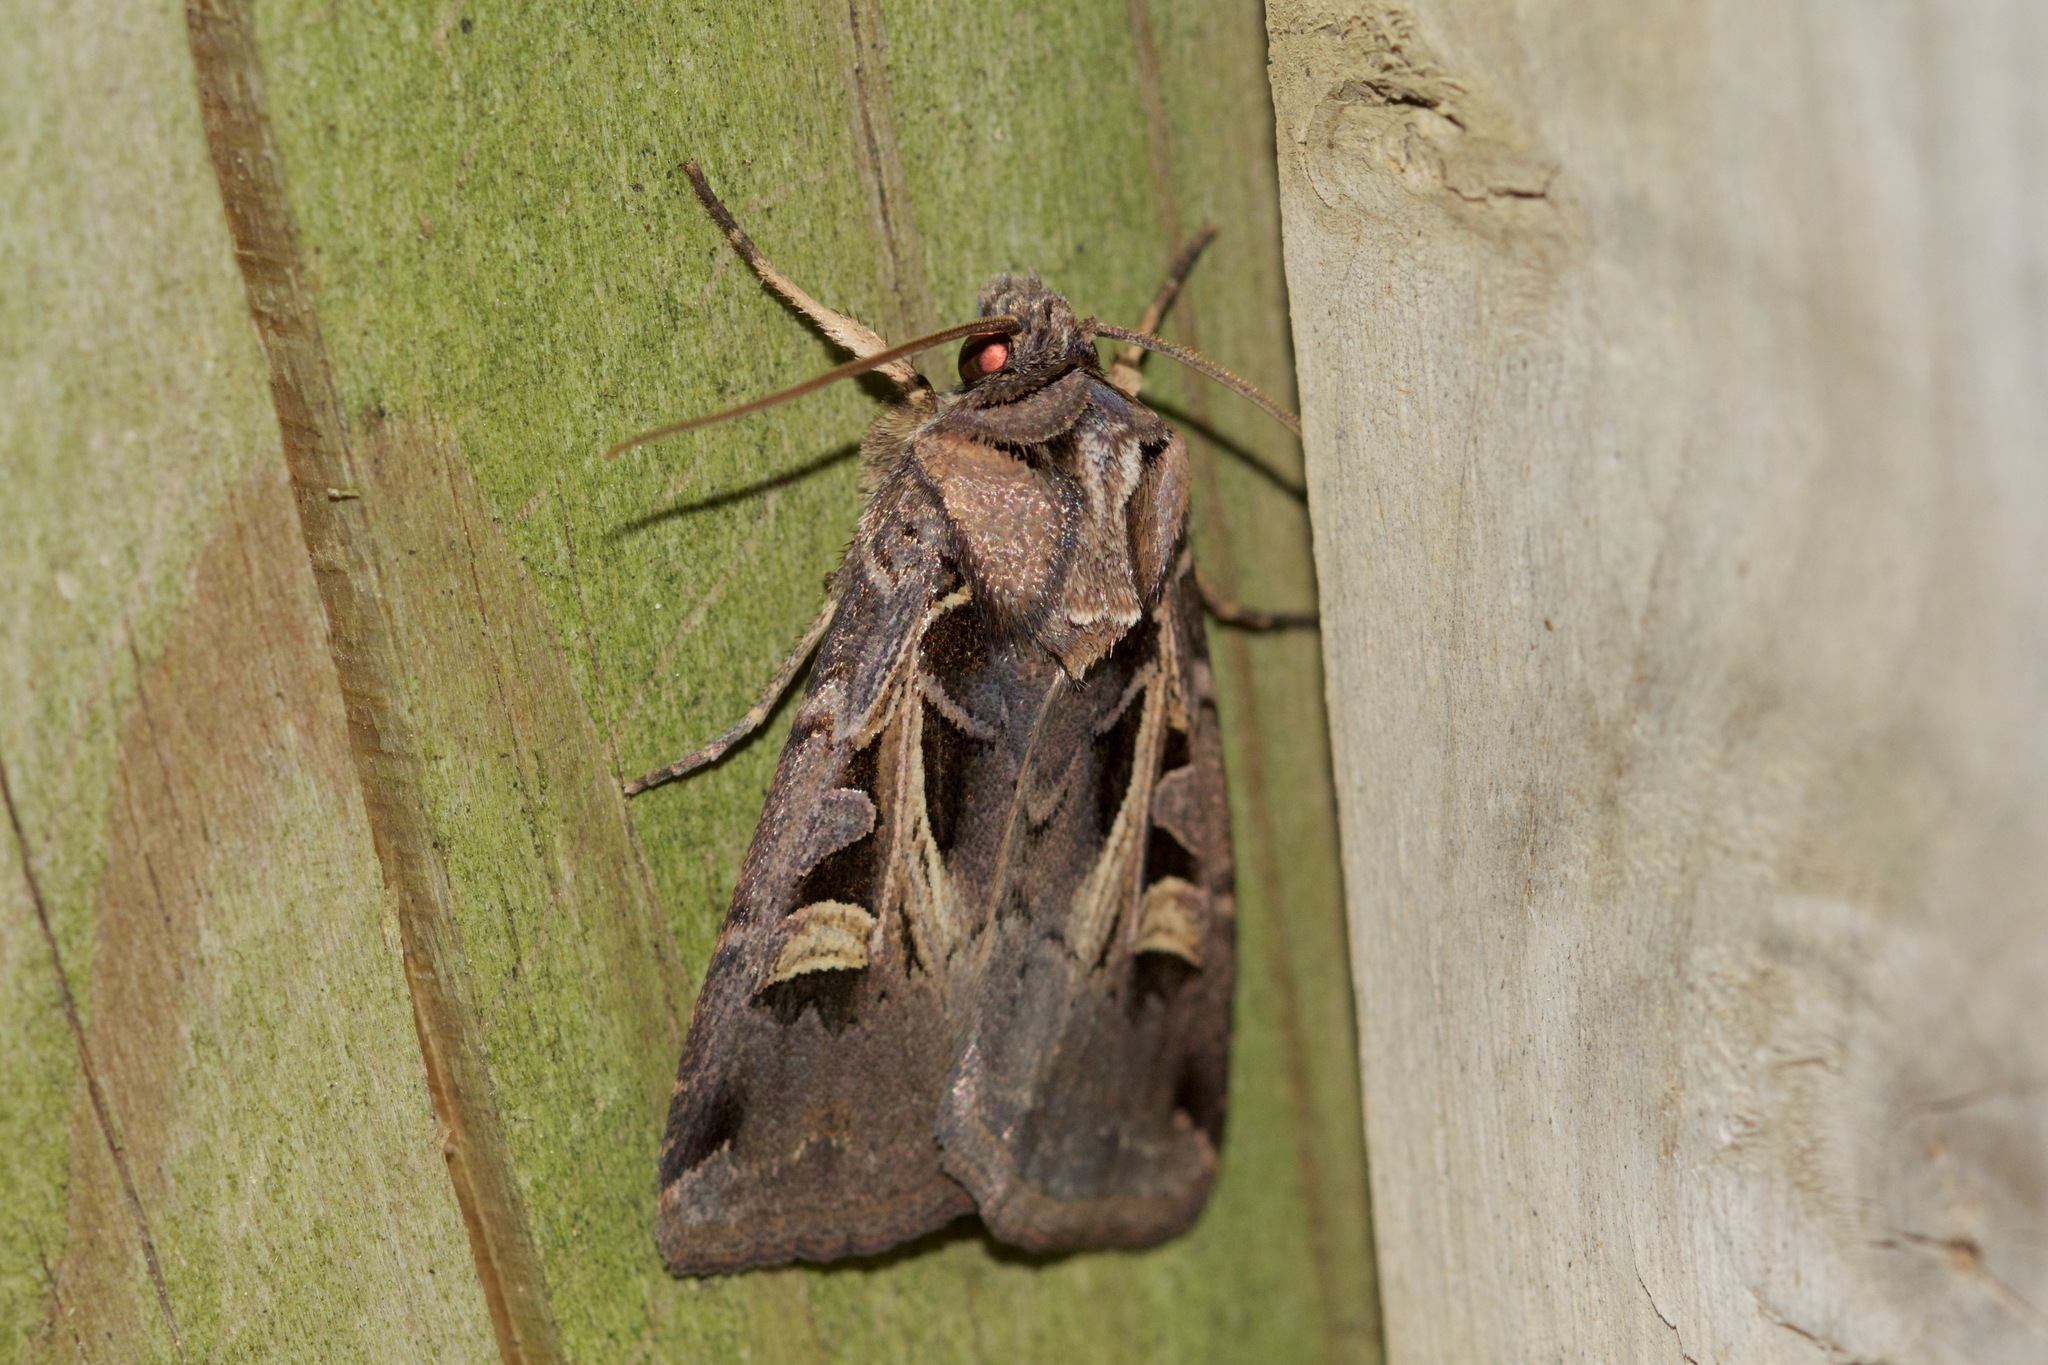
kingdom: Animalia
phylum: Arthropoda
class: Insecta
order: Lepidoptera
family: Noctuidae
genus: Feltia
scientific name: Feltia herilis
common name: Master's dart
